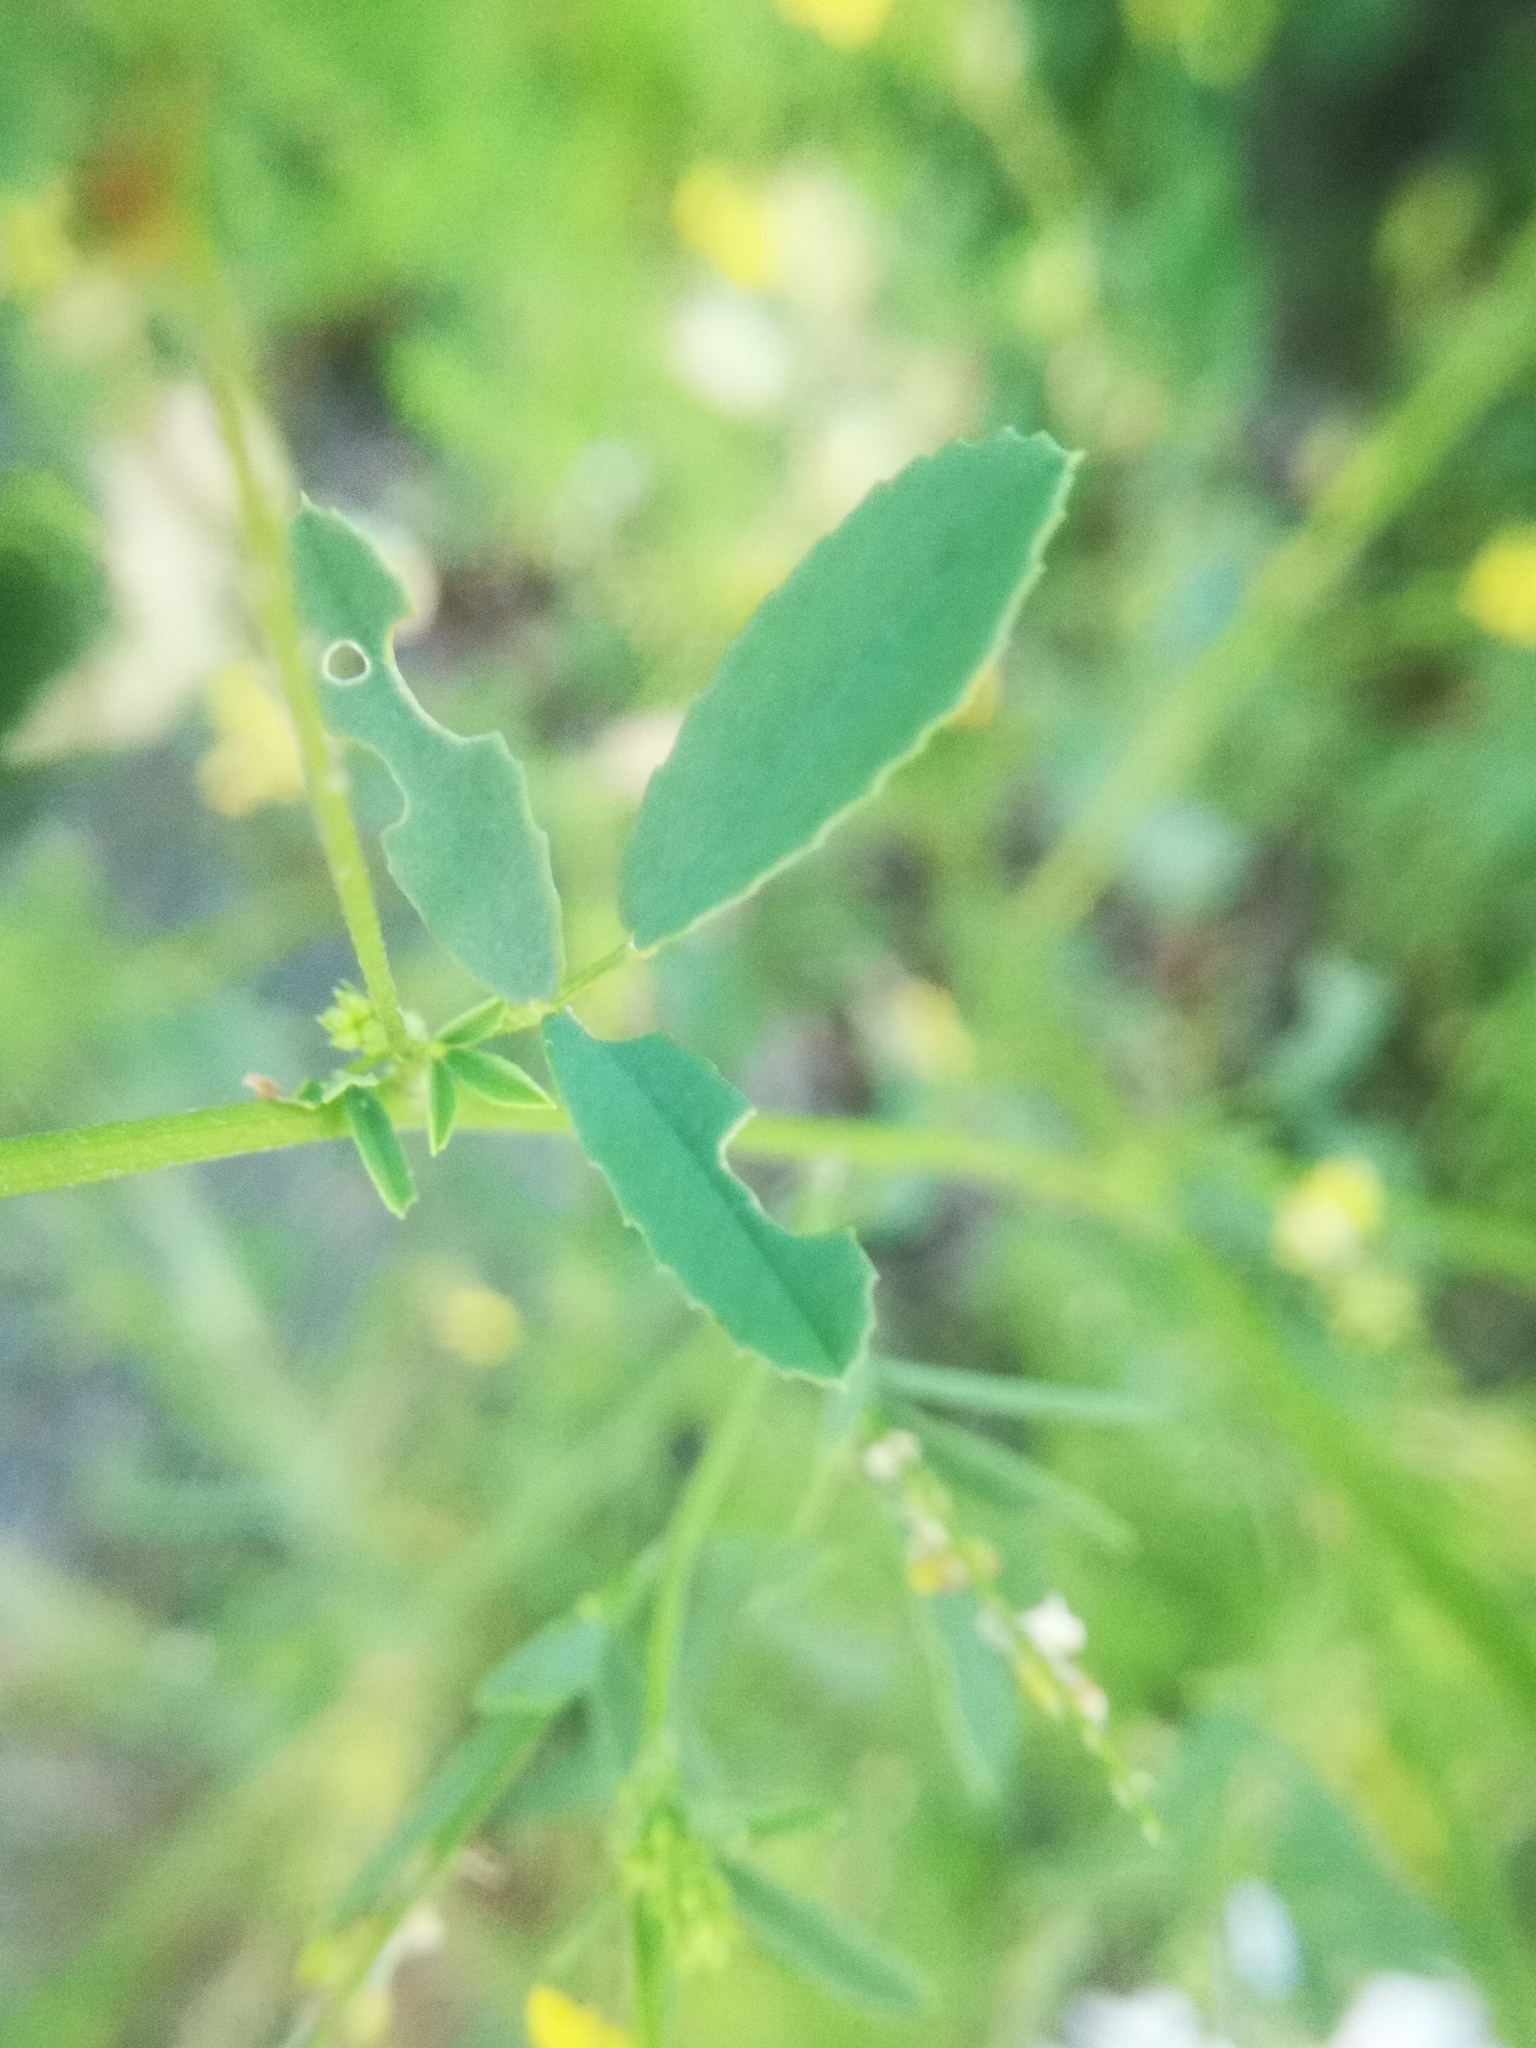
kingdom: Plantae
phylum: Tracheophyta
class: Magnoliopsida
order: Fabales
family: Fabaceae
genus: Melilotus
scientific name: Melilotus officinalis
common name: Sweetclover
